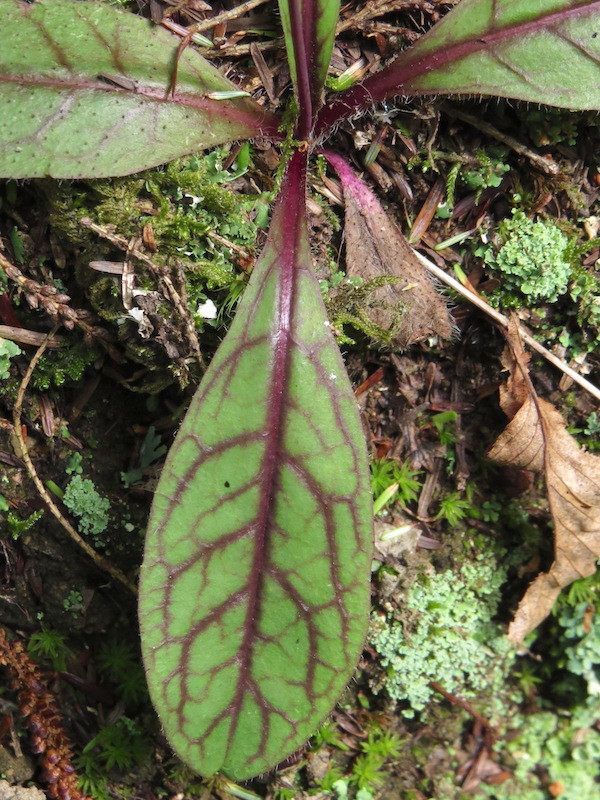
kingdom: Plantae
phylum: Tracheophyta
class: Magnoliopsida
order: Asterales
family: Asteraceae
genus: Hieracium
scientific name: Hieracium venosum
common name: Rattlesnake hawkweed
